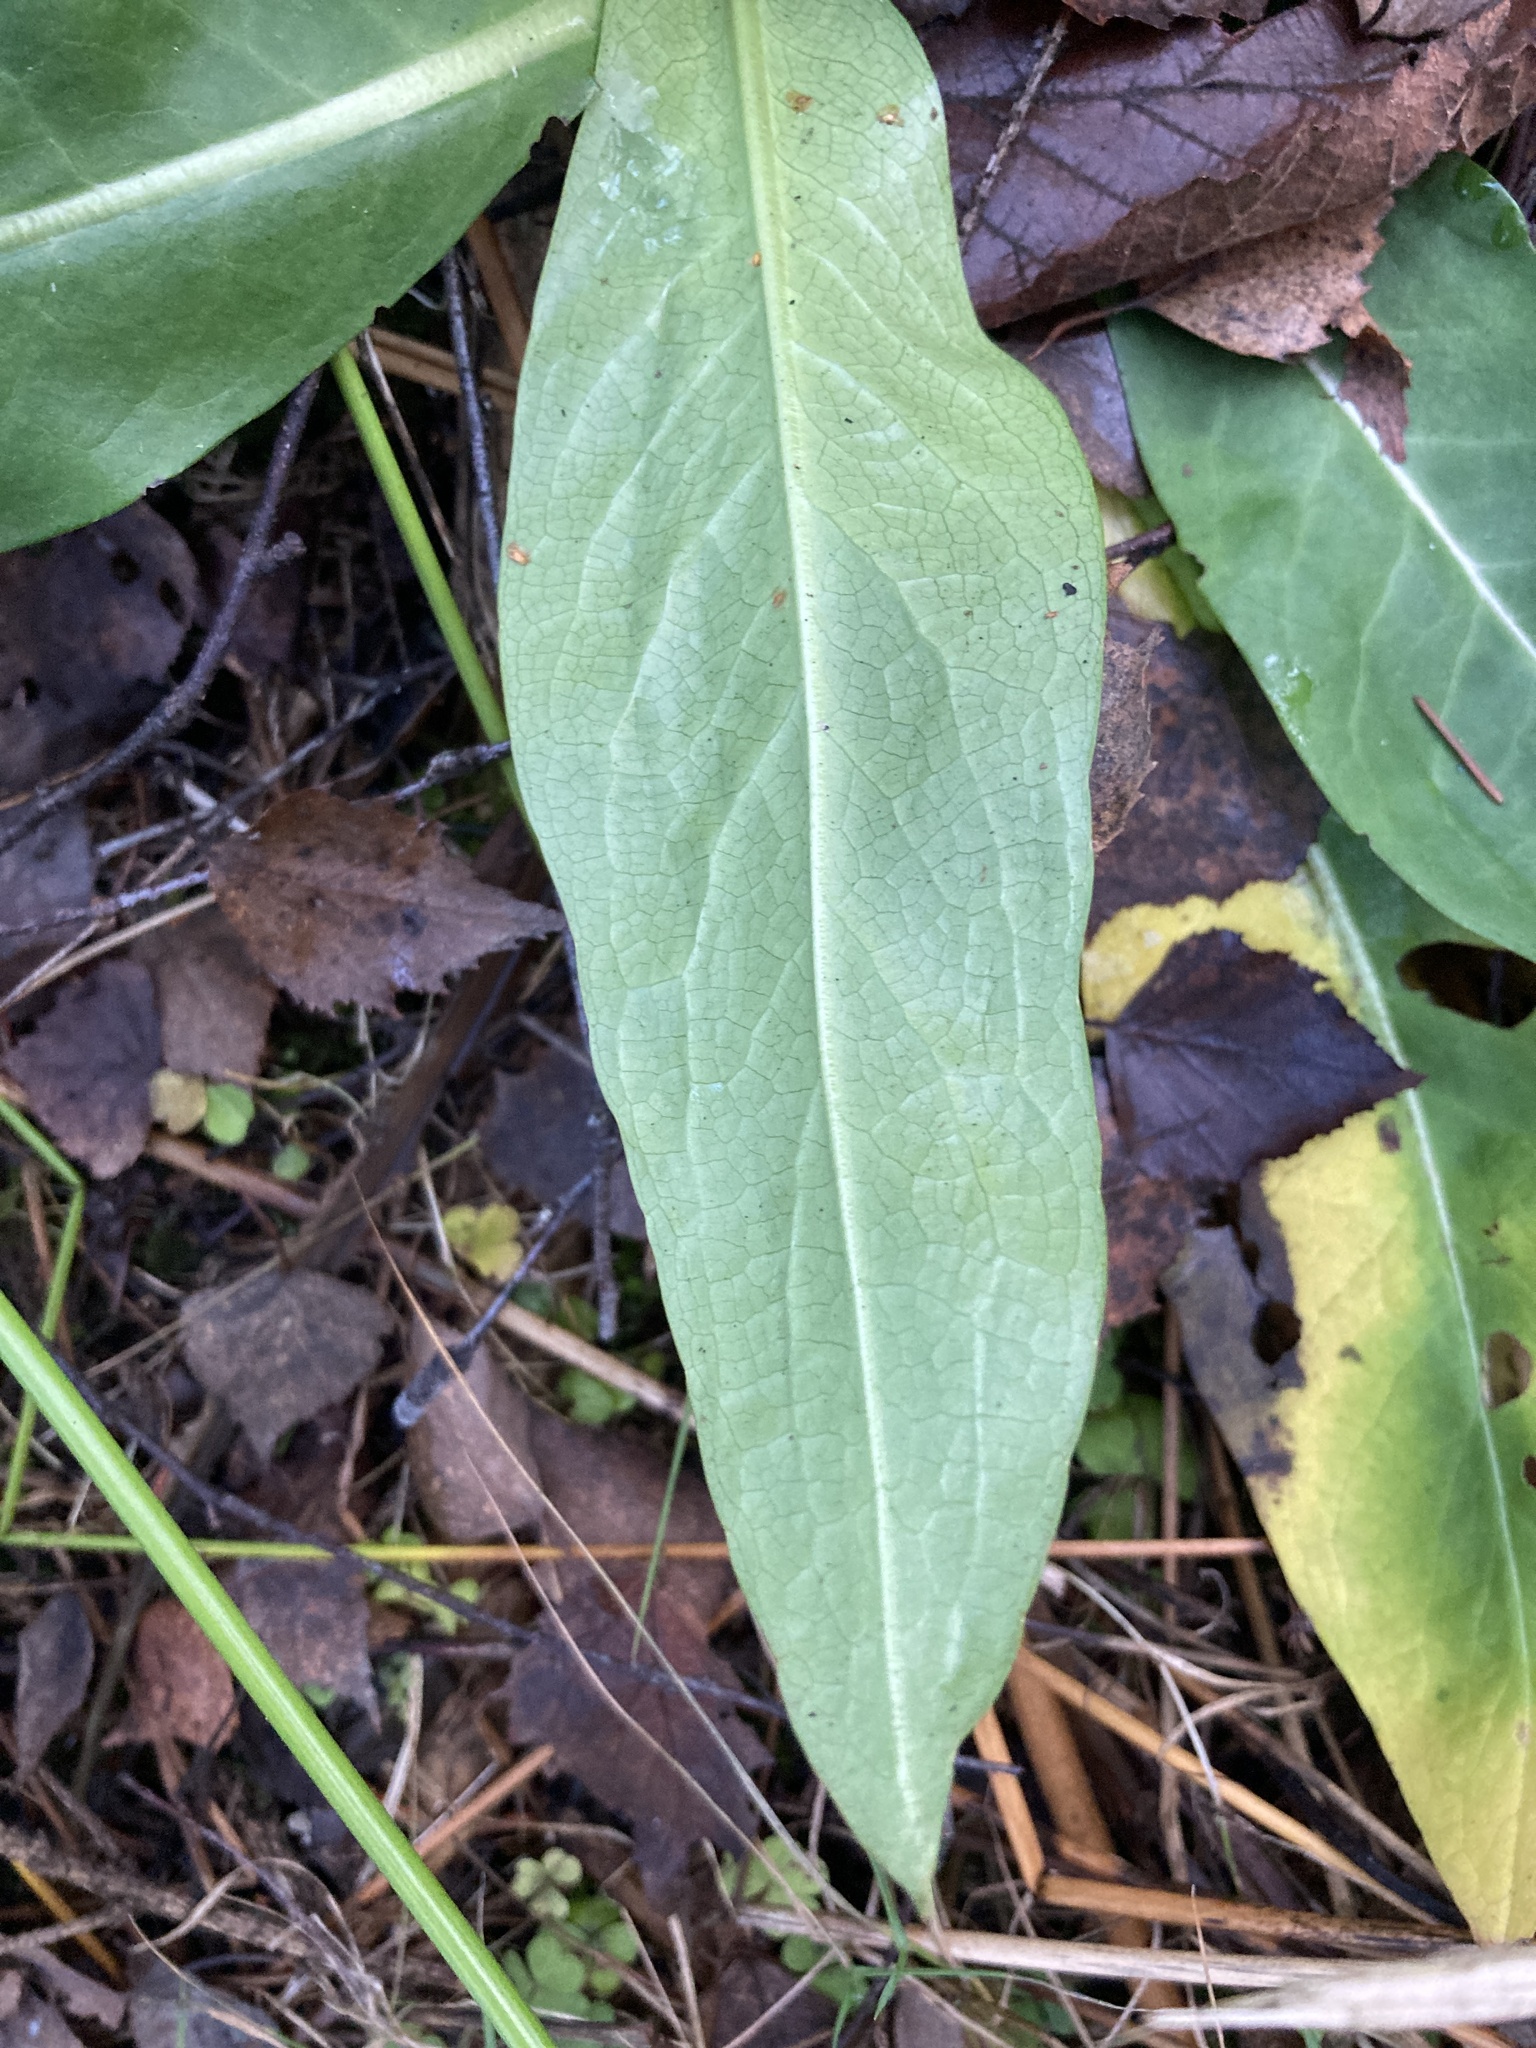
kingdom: Plantae
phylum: Tracheophyta
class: Magnoliopsida
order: Dipsacales
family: Caprifoliaceae
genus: Succisa
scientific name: Succisa pratensis
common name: Devil's-bit
